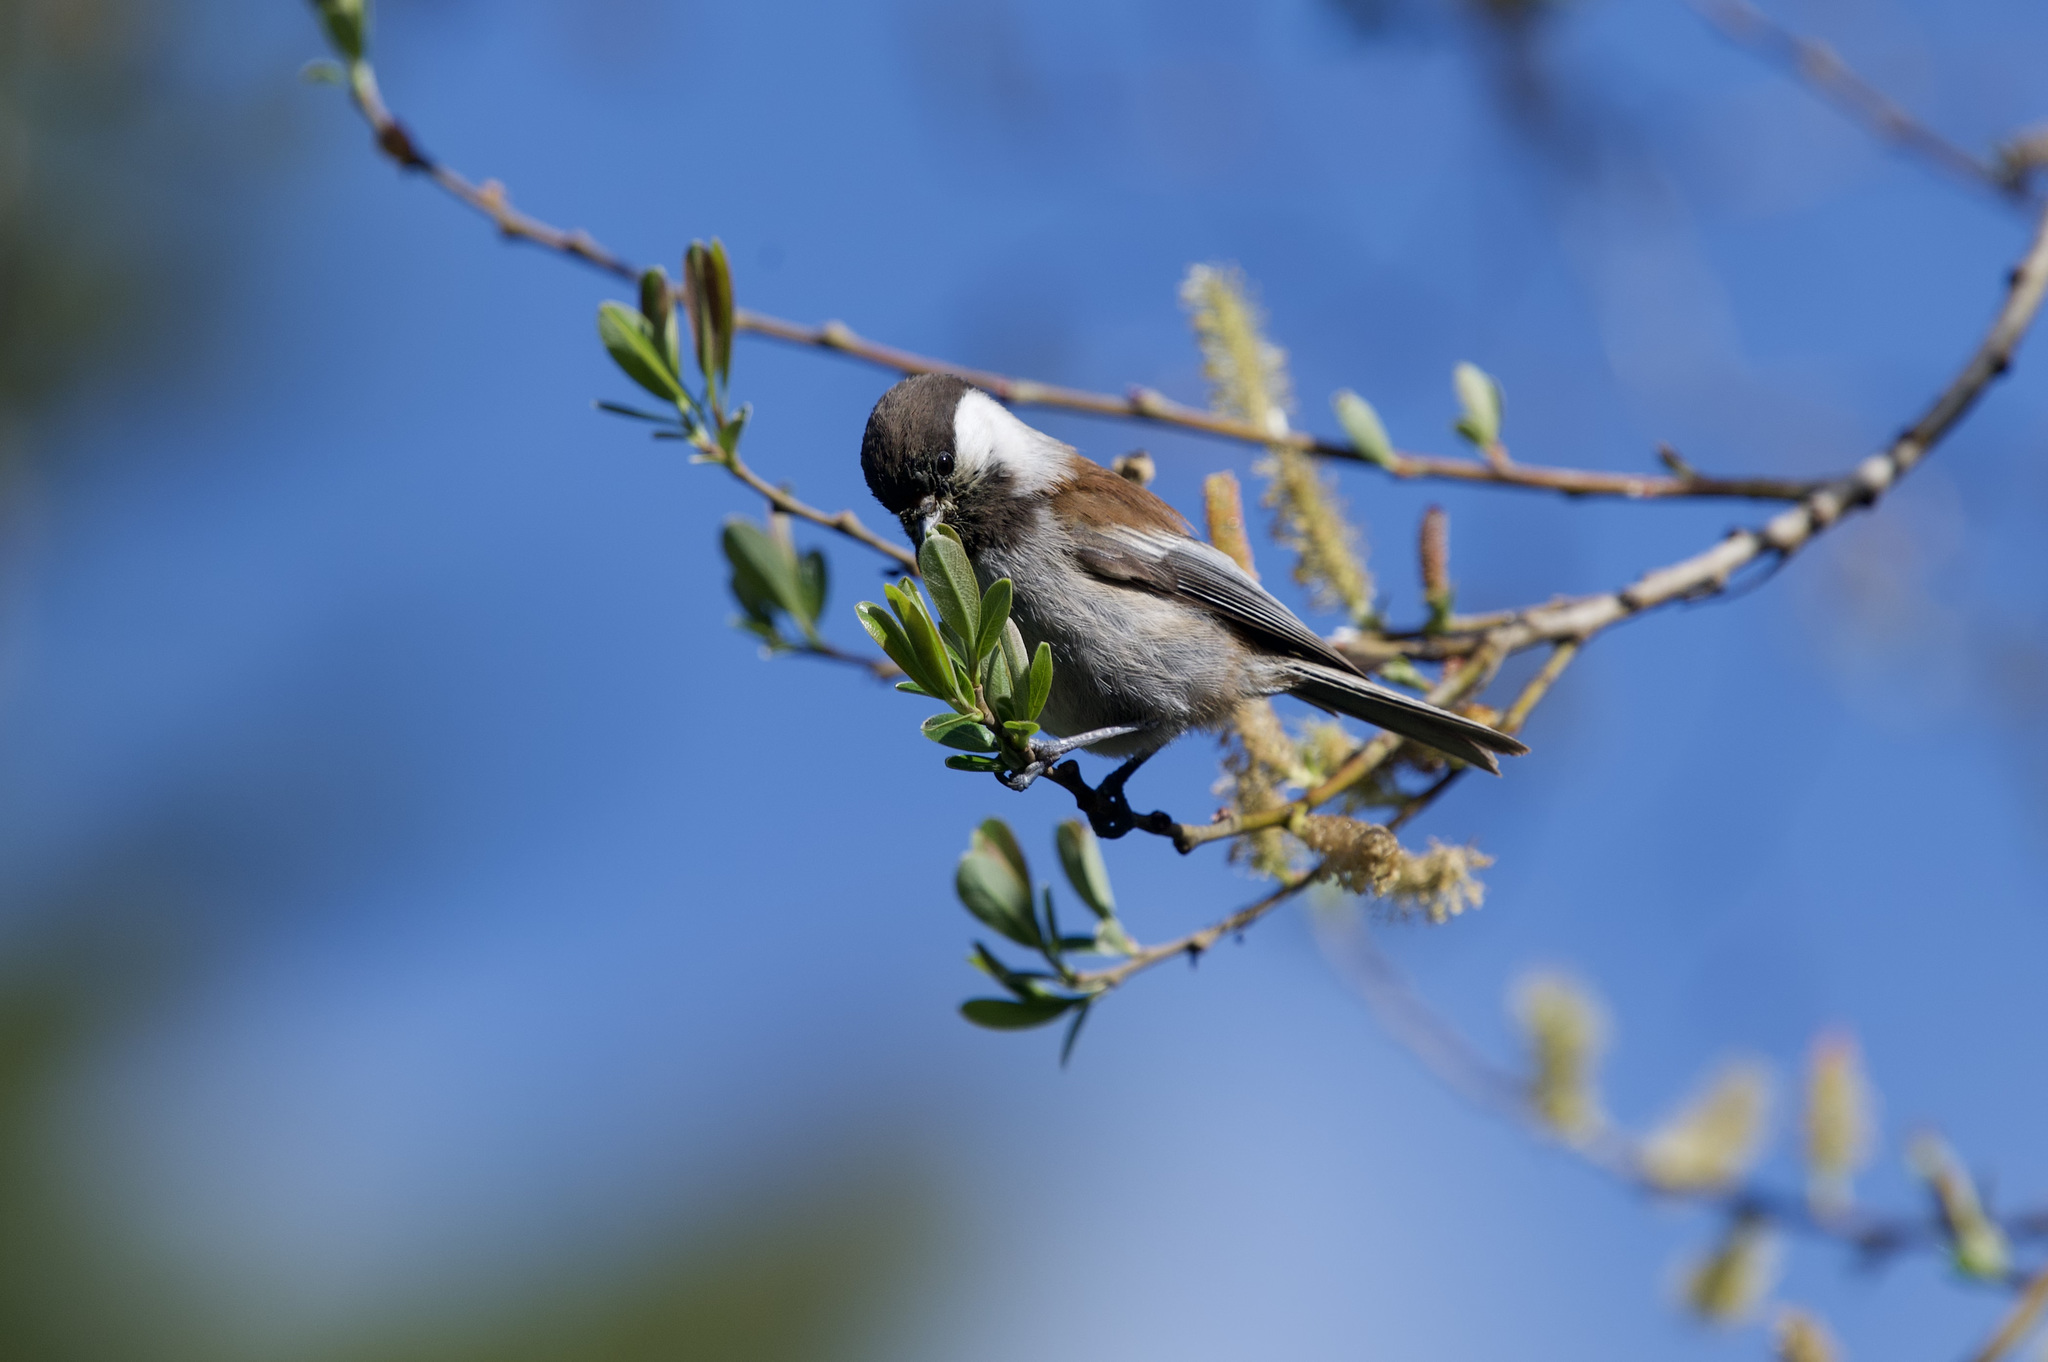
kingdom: Animalia
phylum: Chordata
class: Aves
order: Passeriformes
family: Paridae
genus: Poecile
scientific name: Poecile rufescens
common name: Chestnut-backed chickadee
